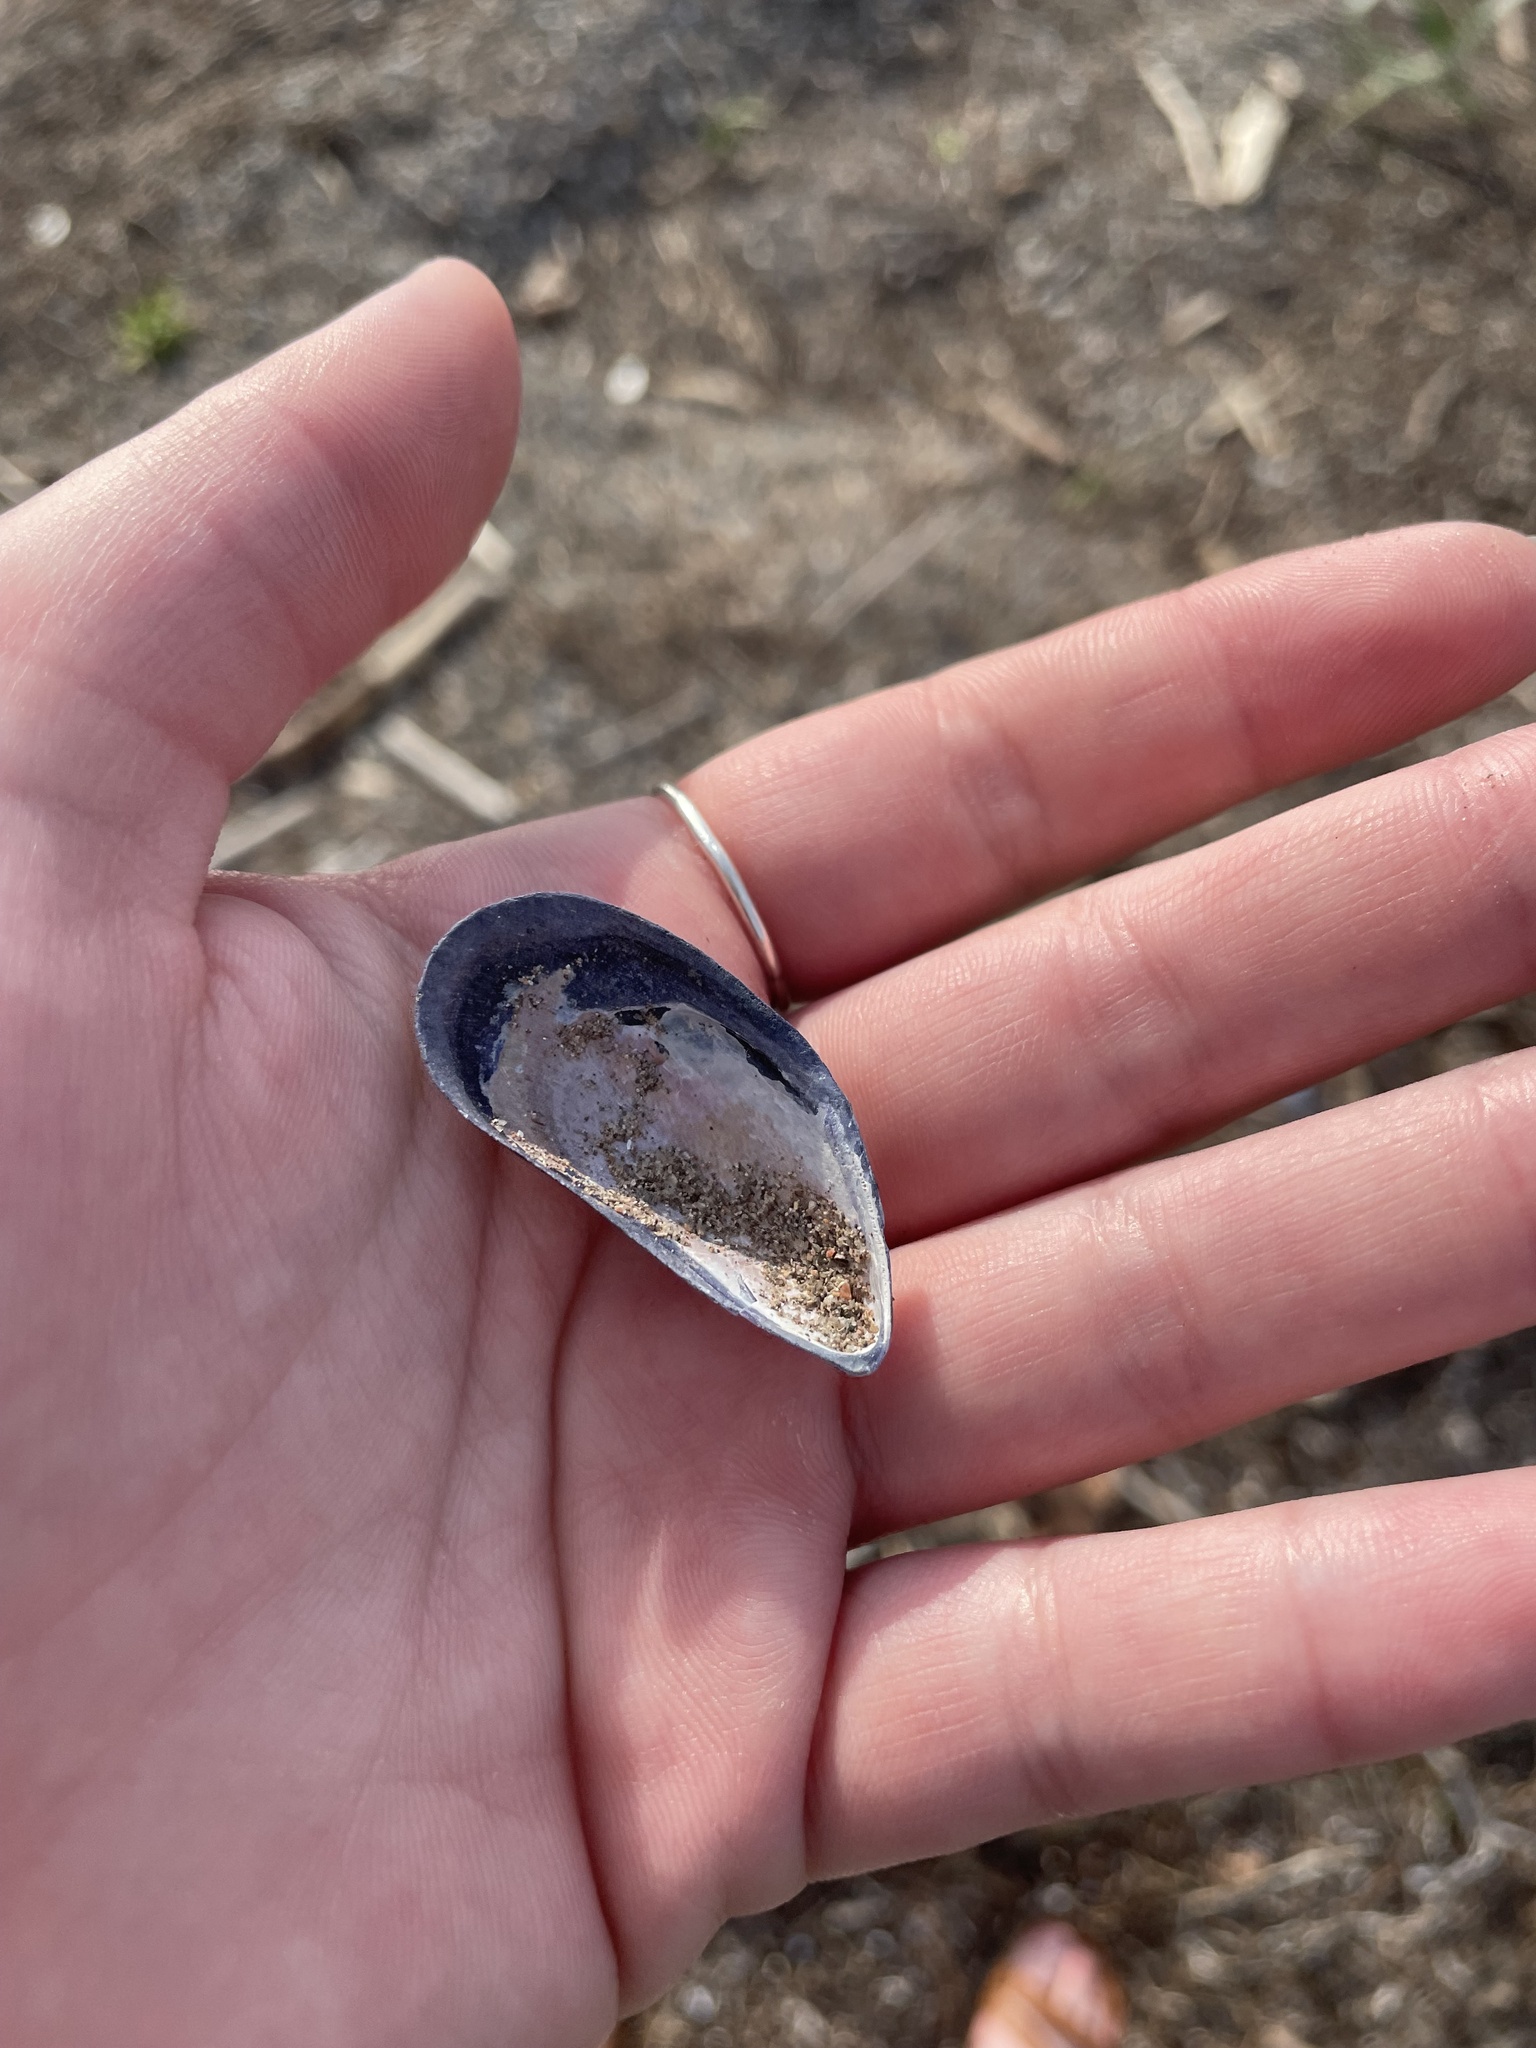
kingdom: Animalia
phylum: Mollusca
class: Bivalvia
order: Mytilida
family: Mytilidae
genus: Mytilus
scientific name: Mytilus
